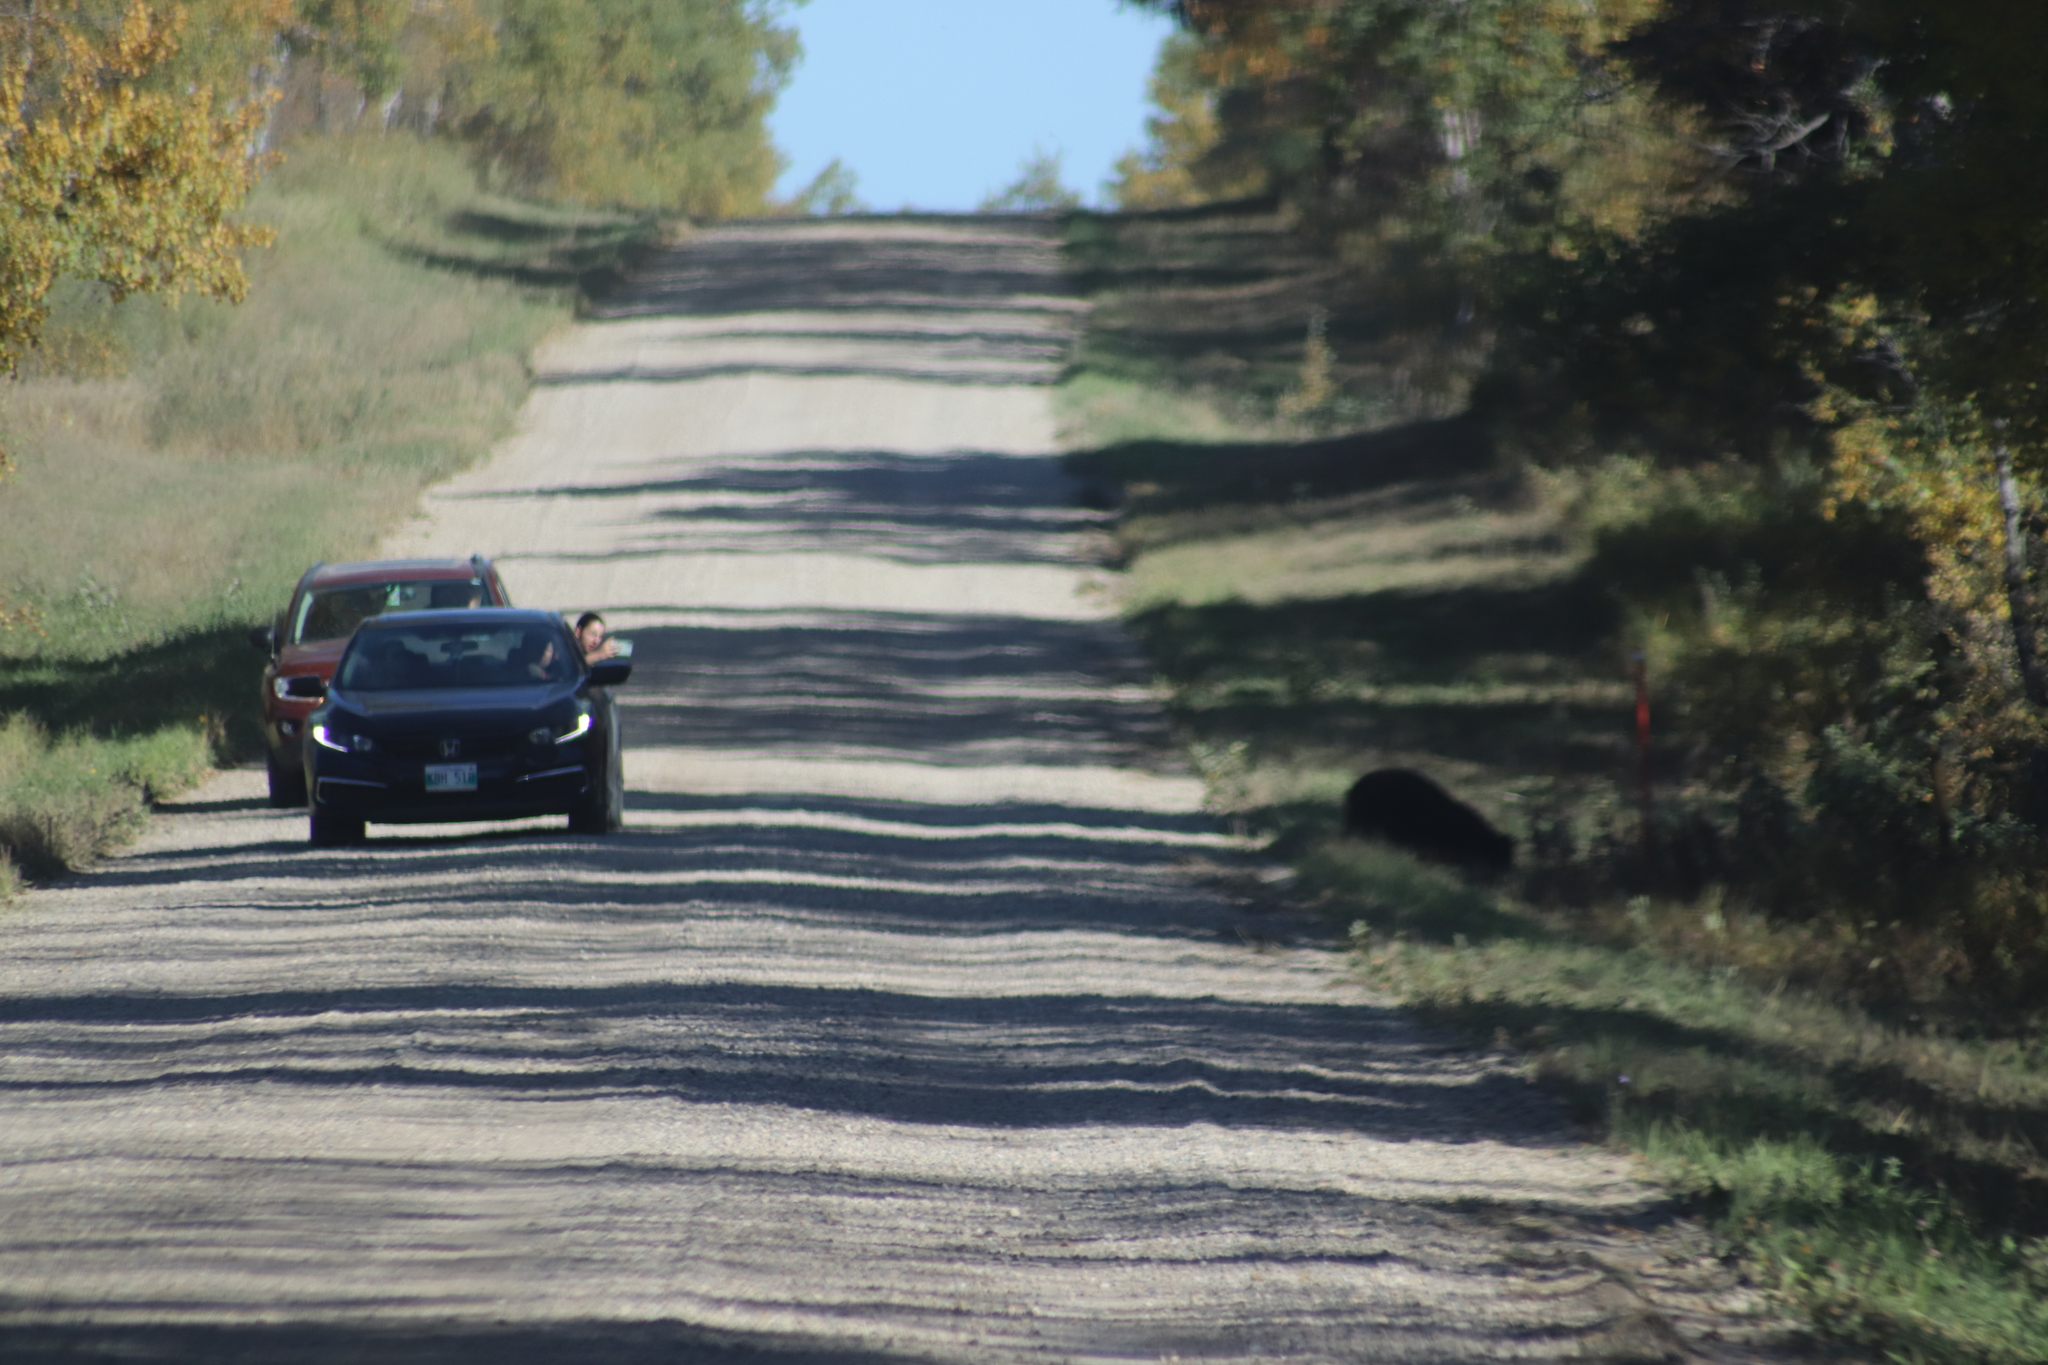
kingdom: Animalia
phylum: Chordata
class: Mammalia
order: Carnivora
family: Ursidae
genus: Ursus
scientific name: Ursus americanus
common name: American black bear
